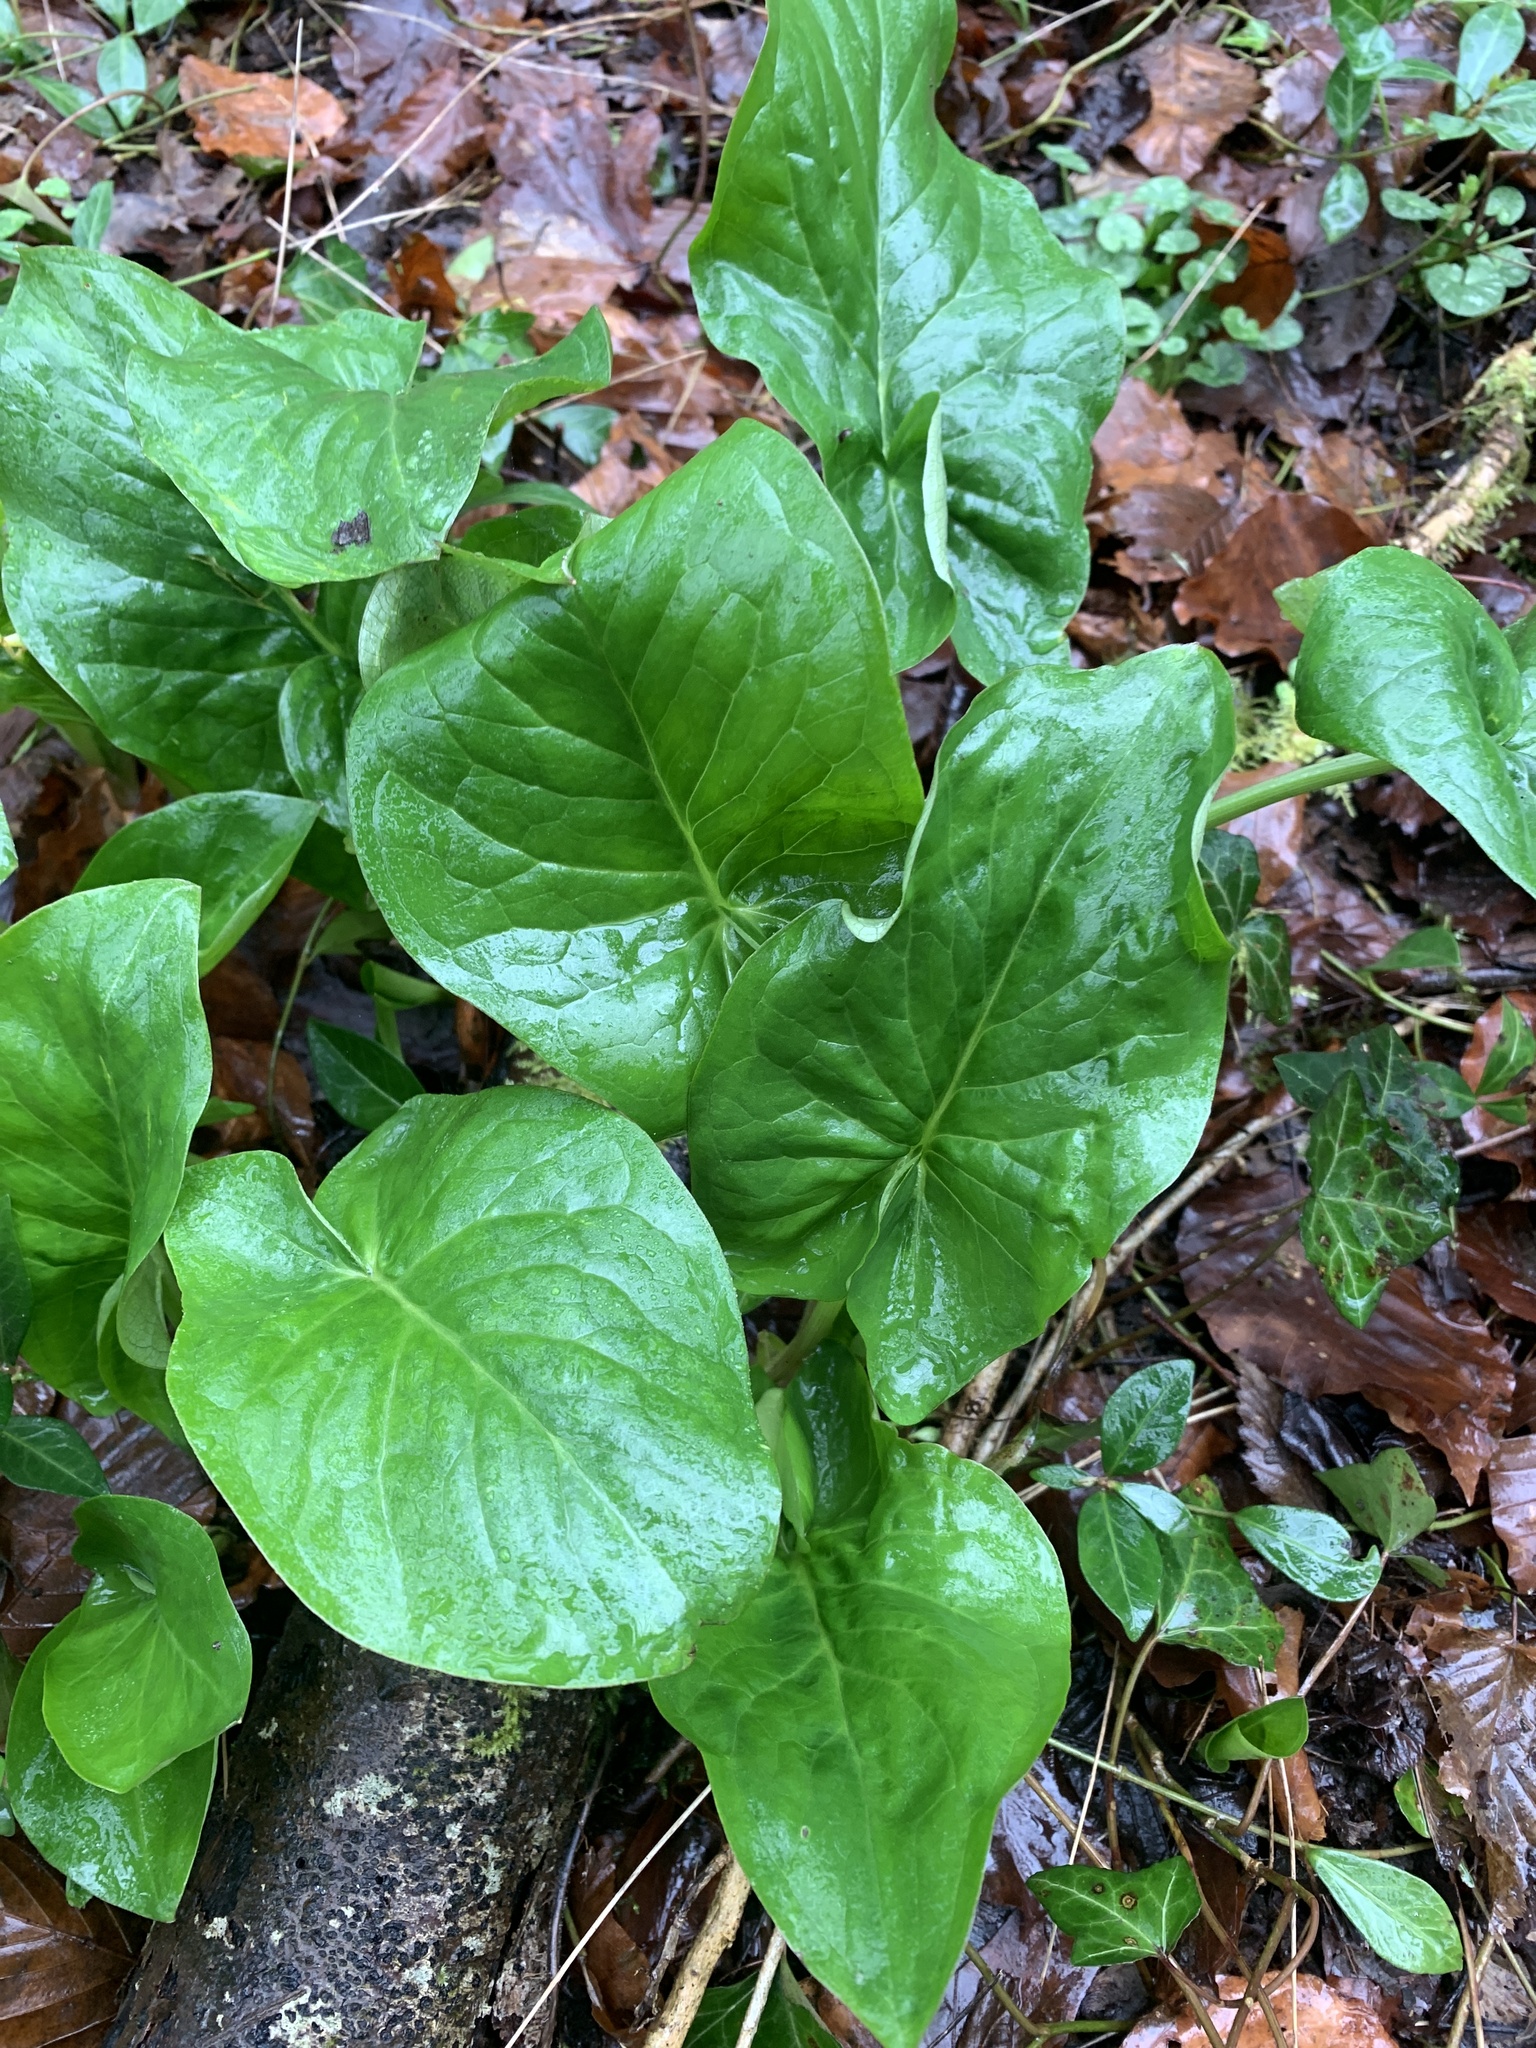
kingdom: Plantae
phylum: Tracheophyta
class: Liliopsida
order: Alismatales
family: Araceae
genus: Arum
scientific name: Arum maculatum
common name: Lords-and-ladies
